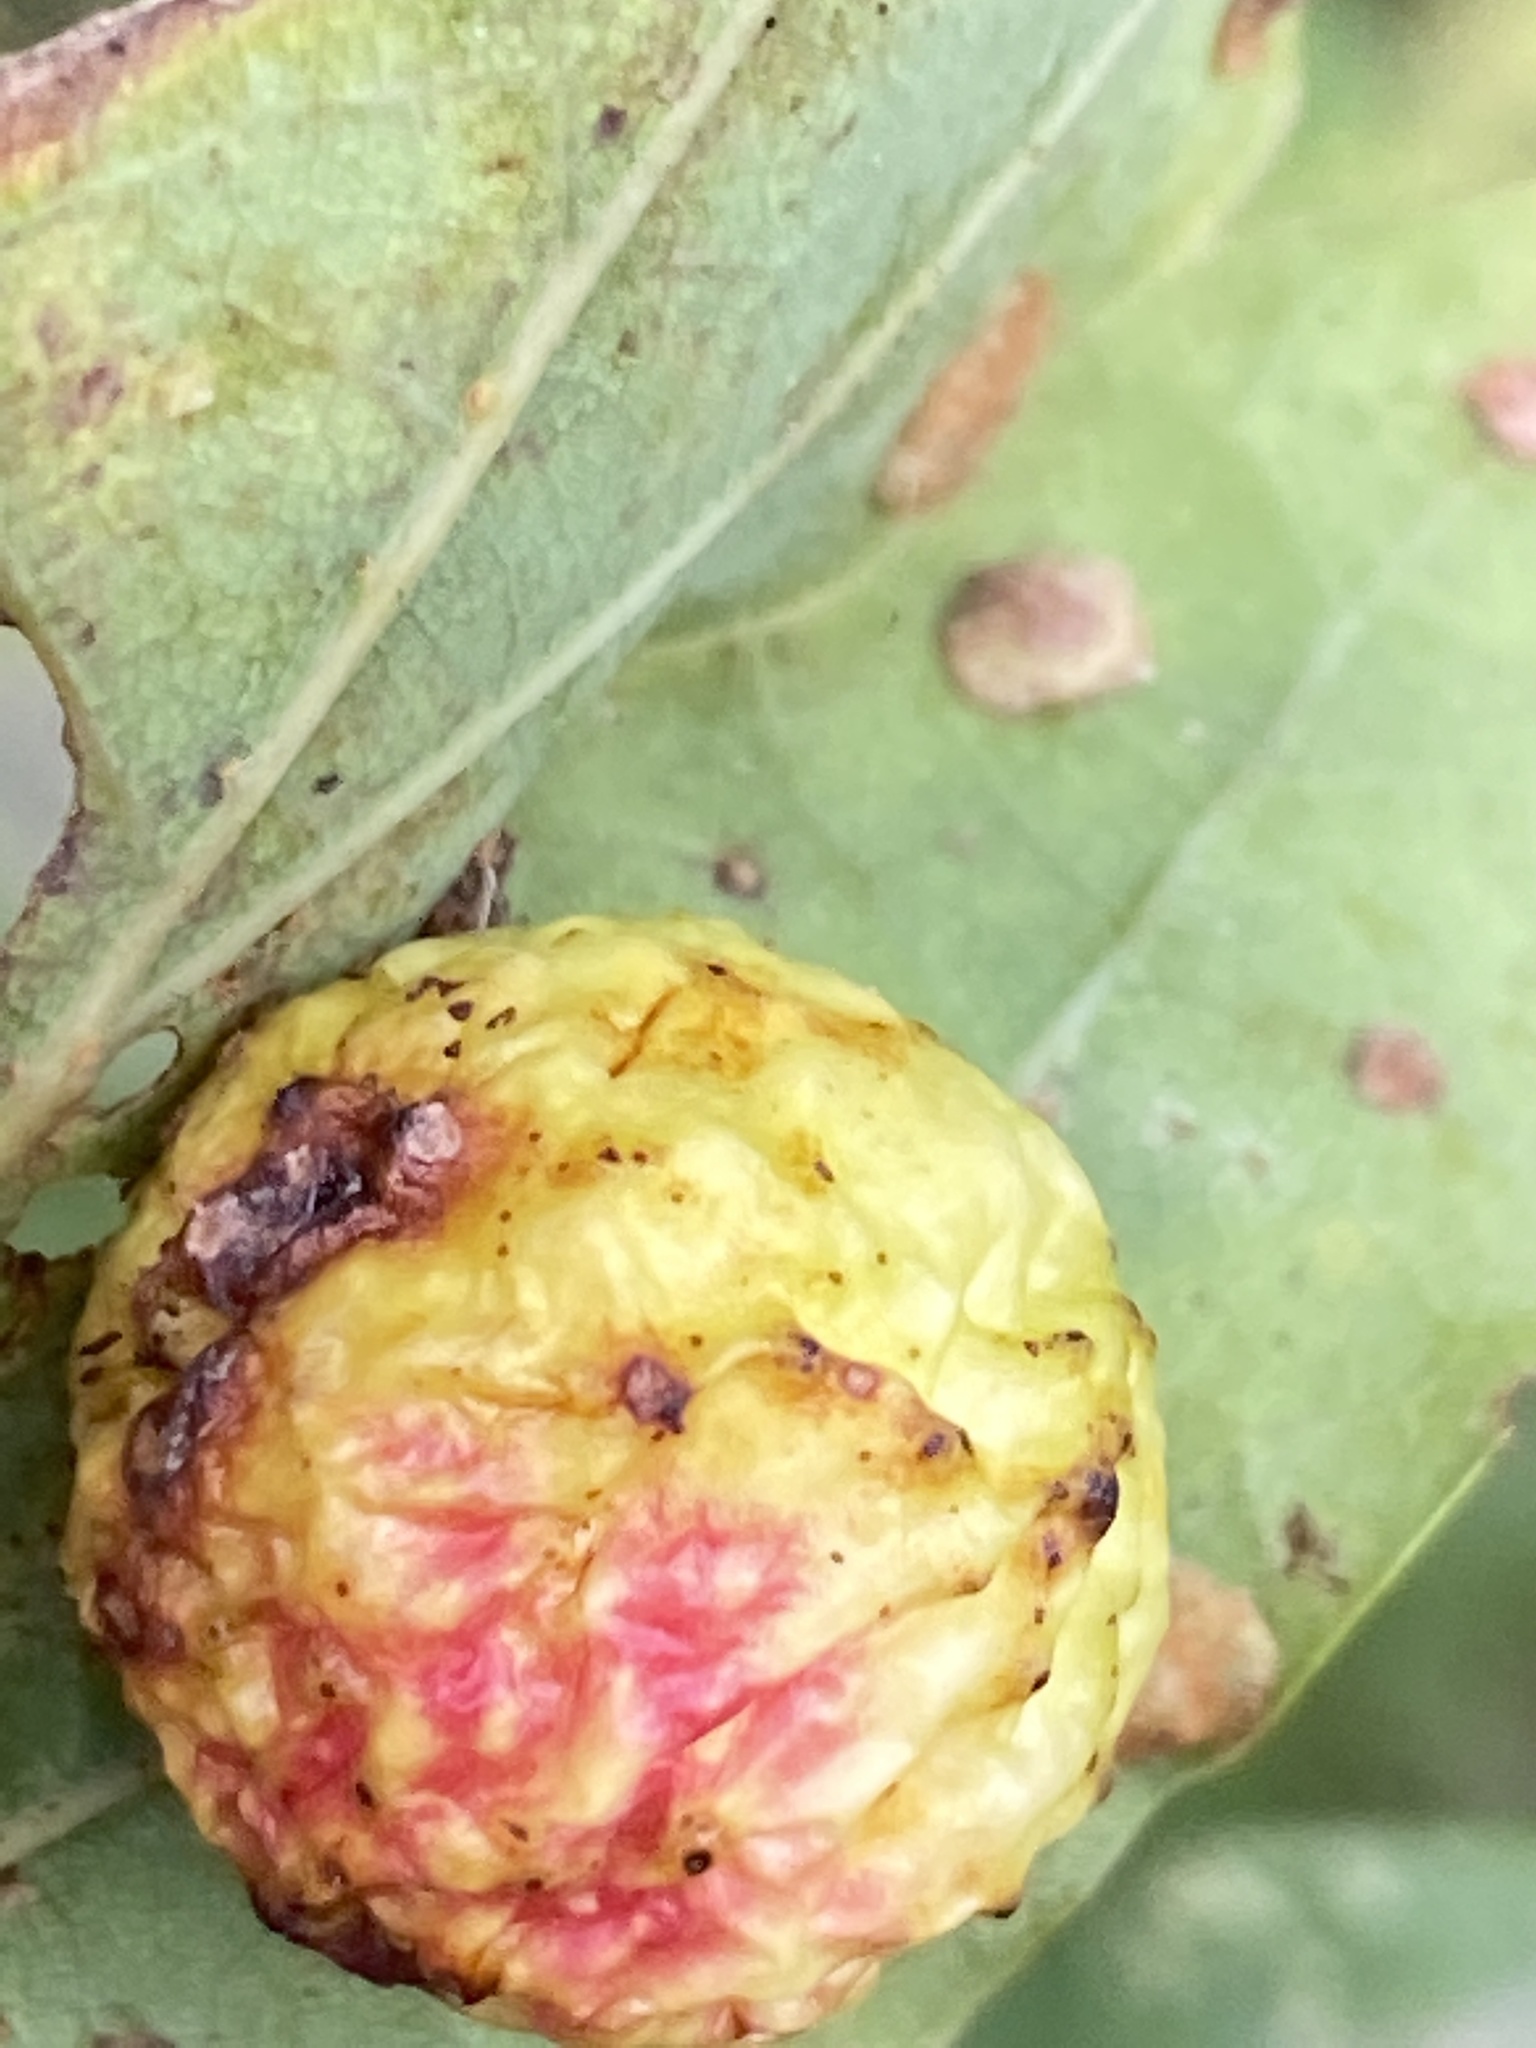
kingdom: Animalia
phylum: Arthropoda
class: Insecta
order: Hymenoptera
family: Cynipidae
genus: Cynips
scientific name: Cynips quercusfolii
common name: Cherry gall
